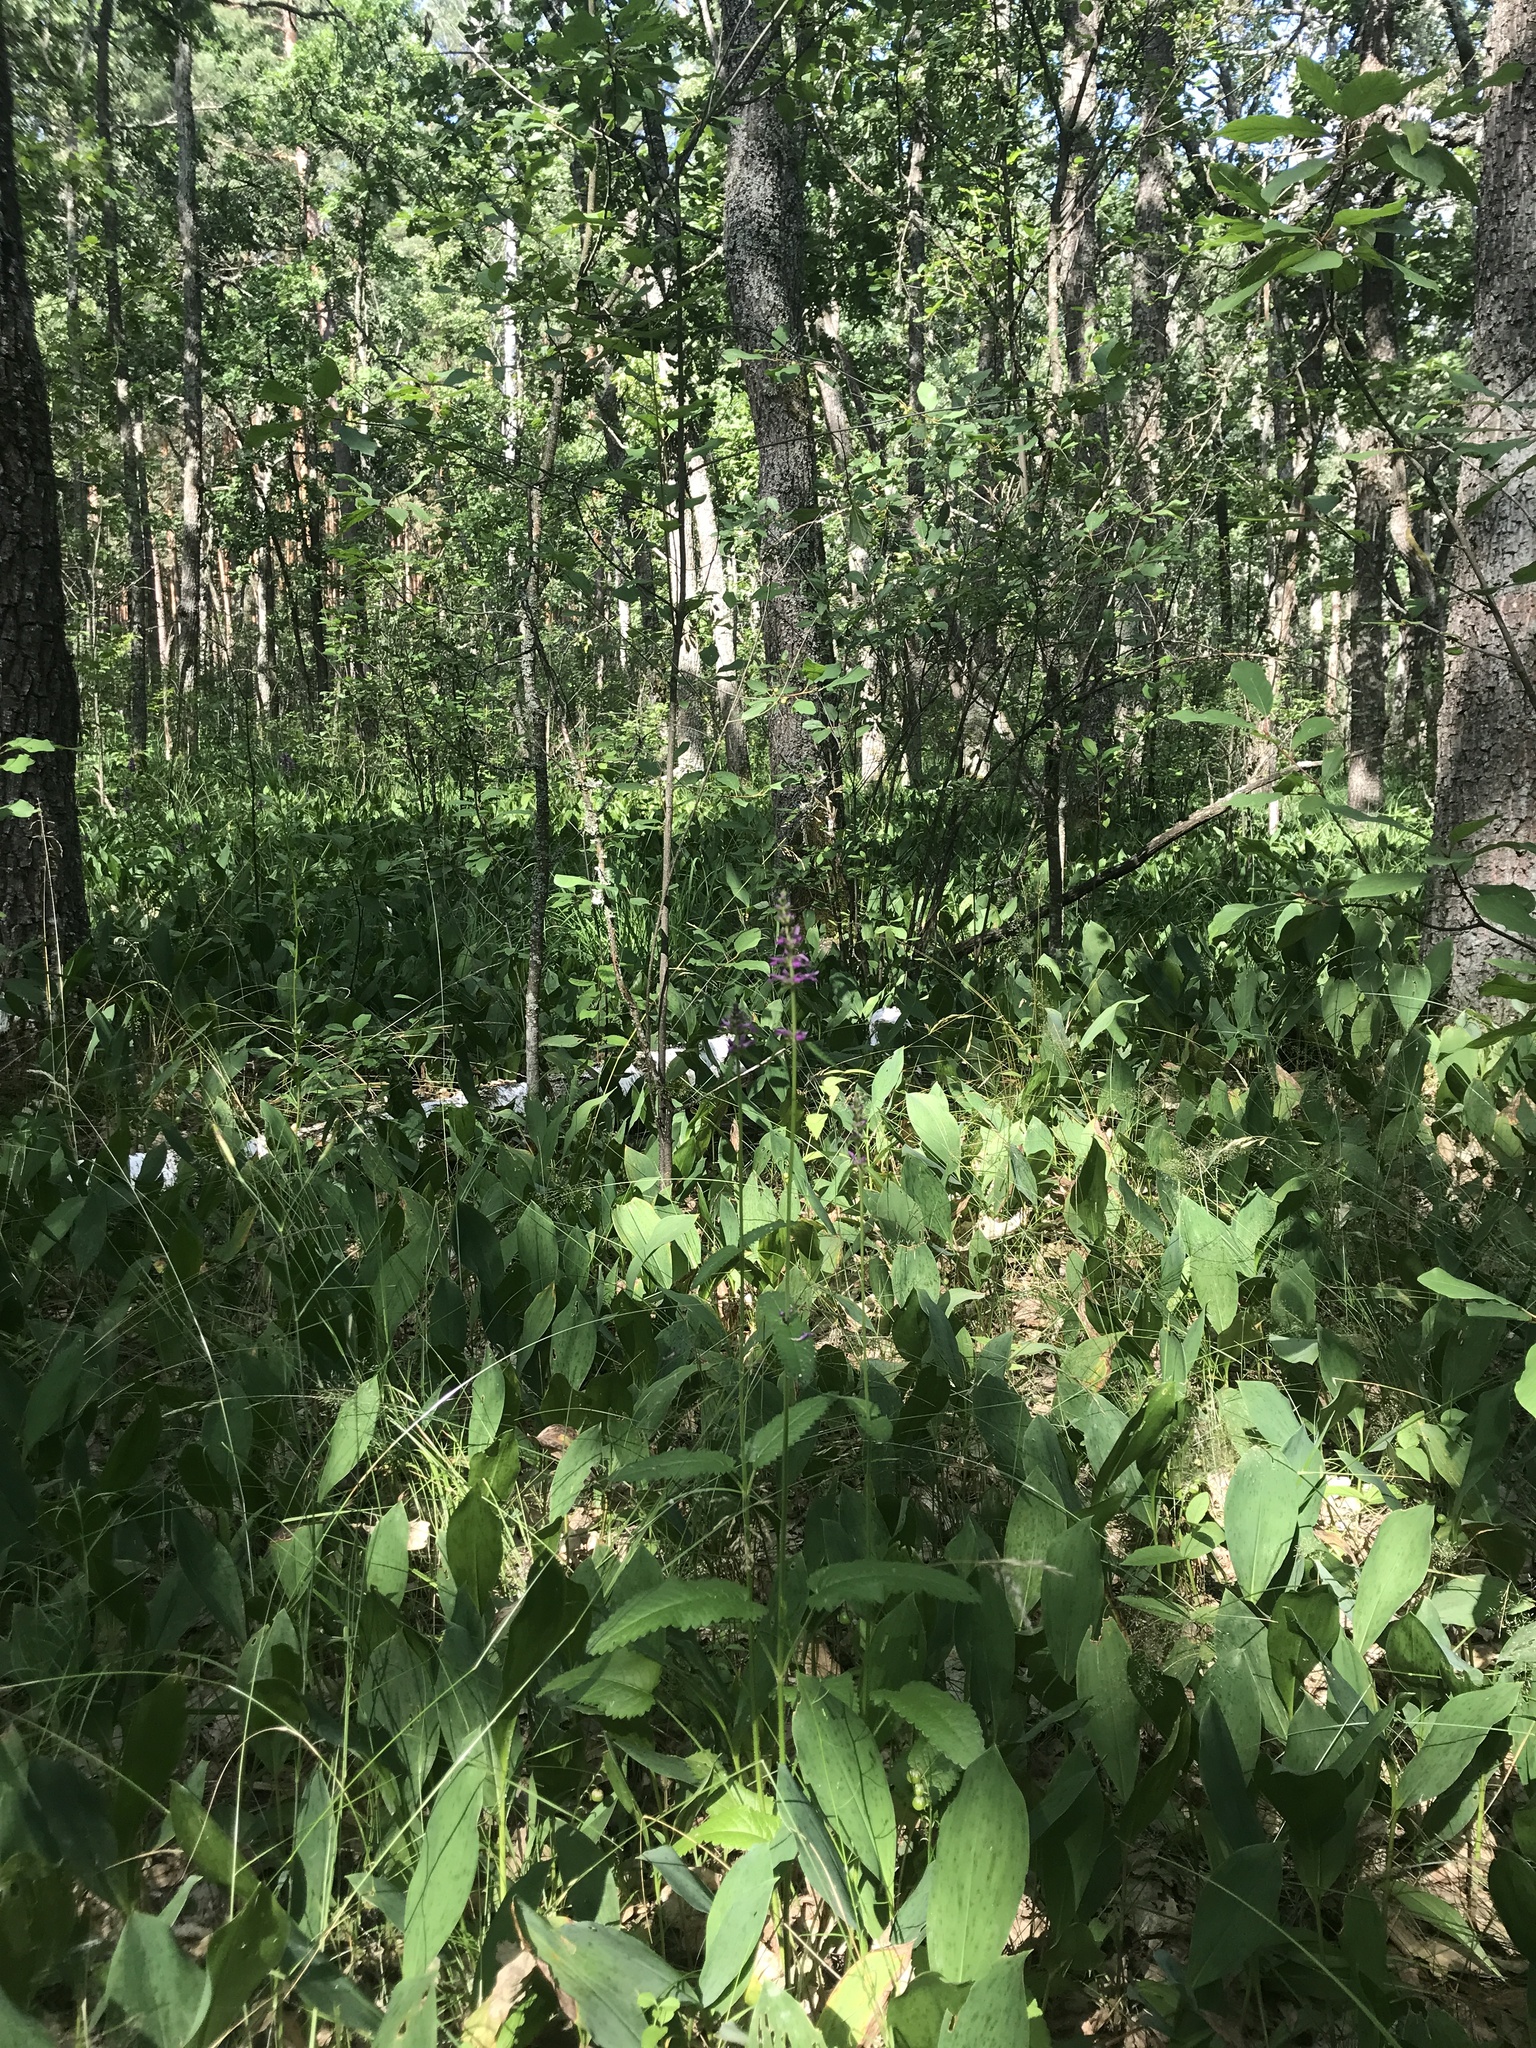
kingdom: Plantae
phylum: Tracheophyta
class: Liliopsida
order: Asparagales
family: Asparagaceae
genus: Convallaria
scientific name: Convallaria majalis
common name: Lily-of-the-valley
